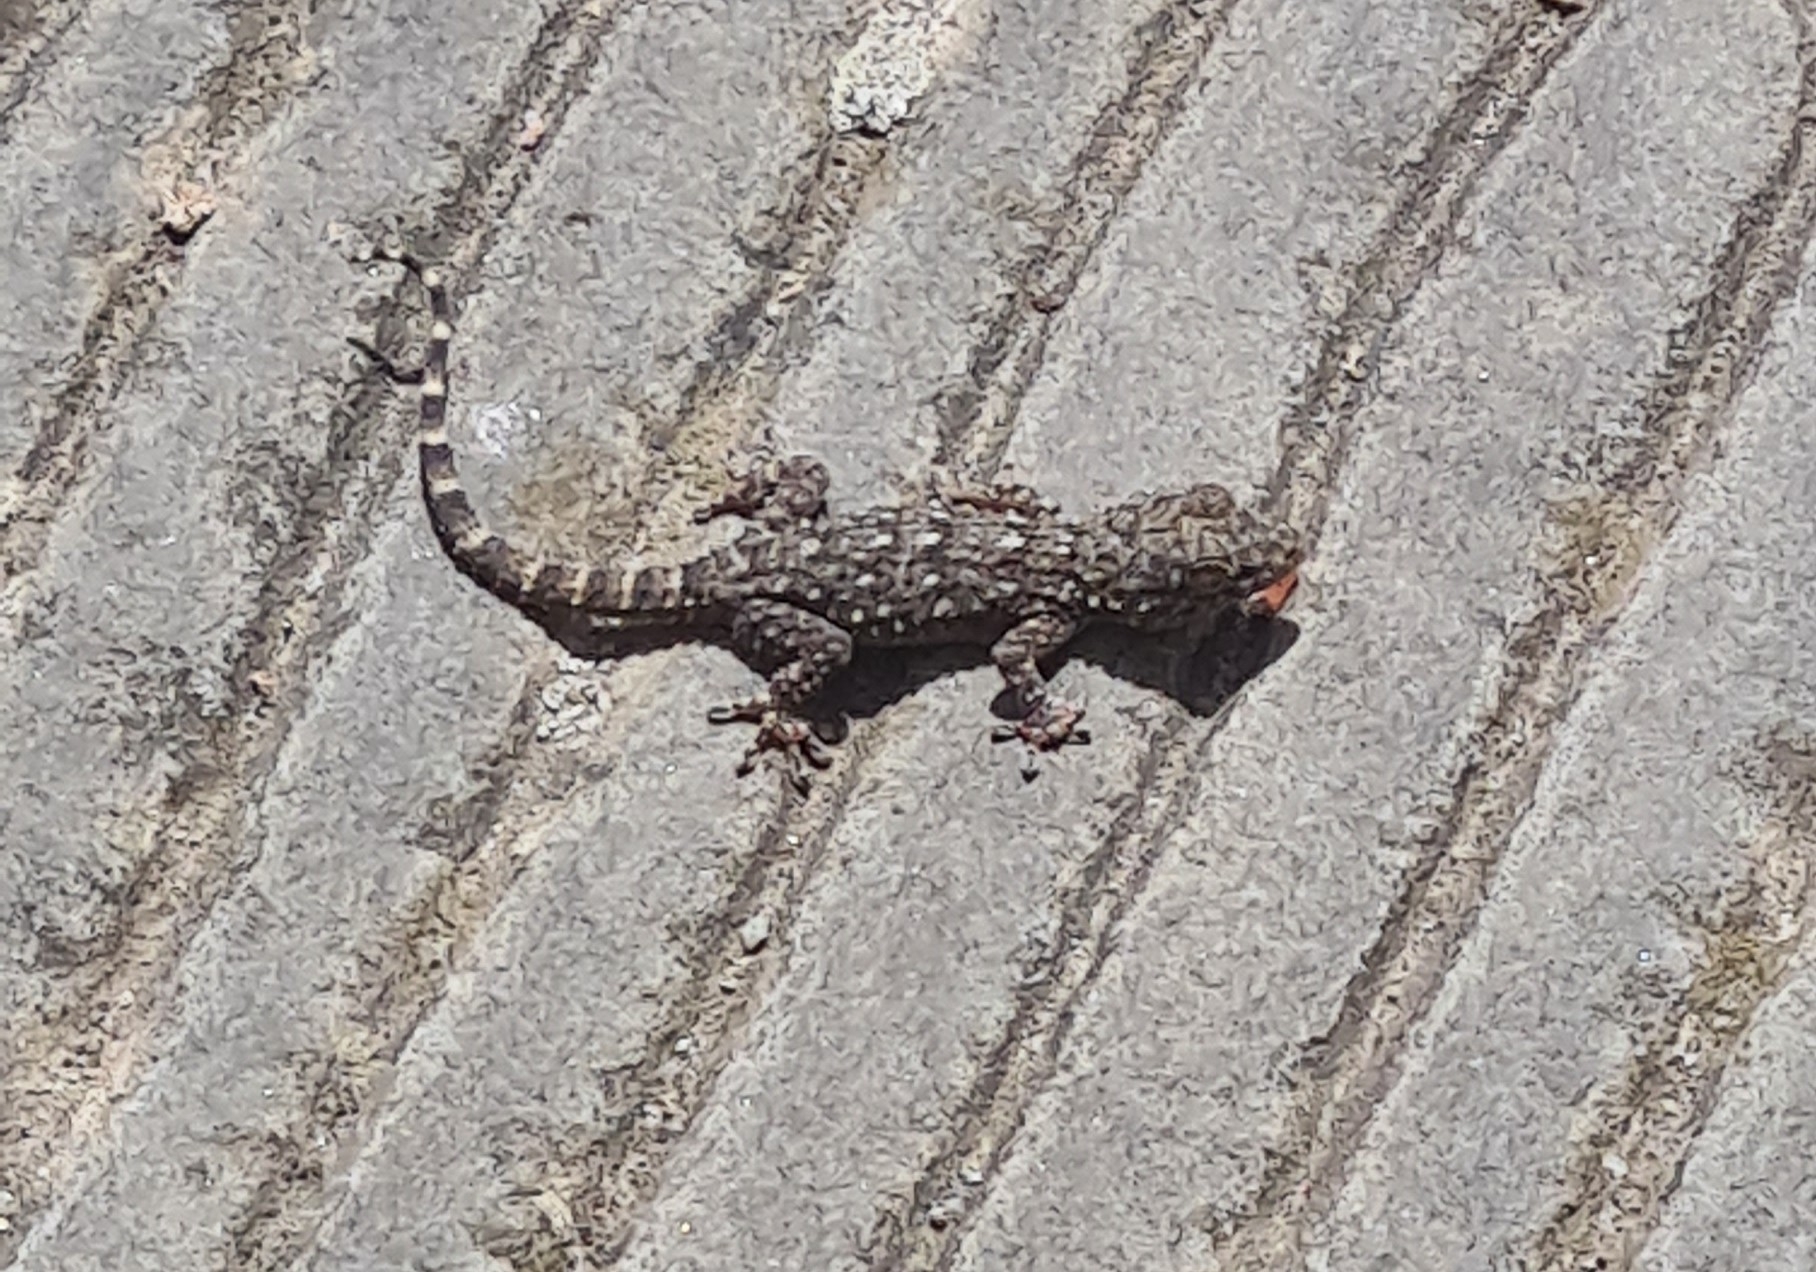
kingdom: Animalia
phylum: Chordata
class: Squamata
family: Phyllodactylidae
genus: Tarentola
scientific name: Tarentola mauritanica
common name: Moorish gecko
